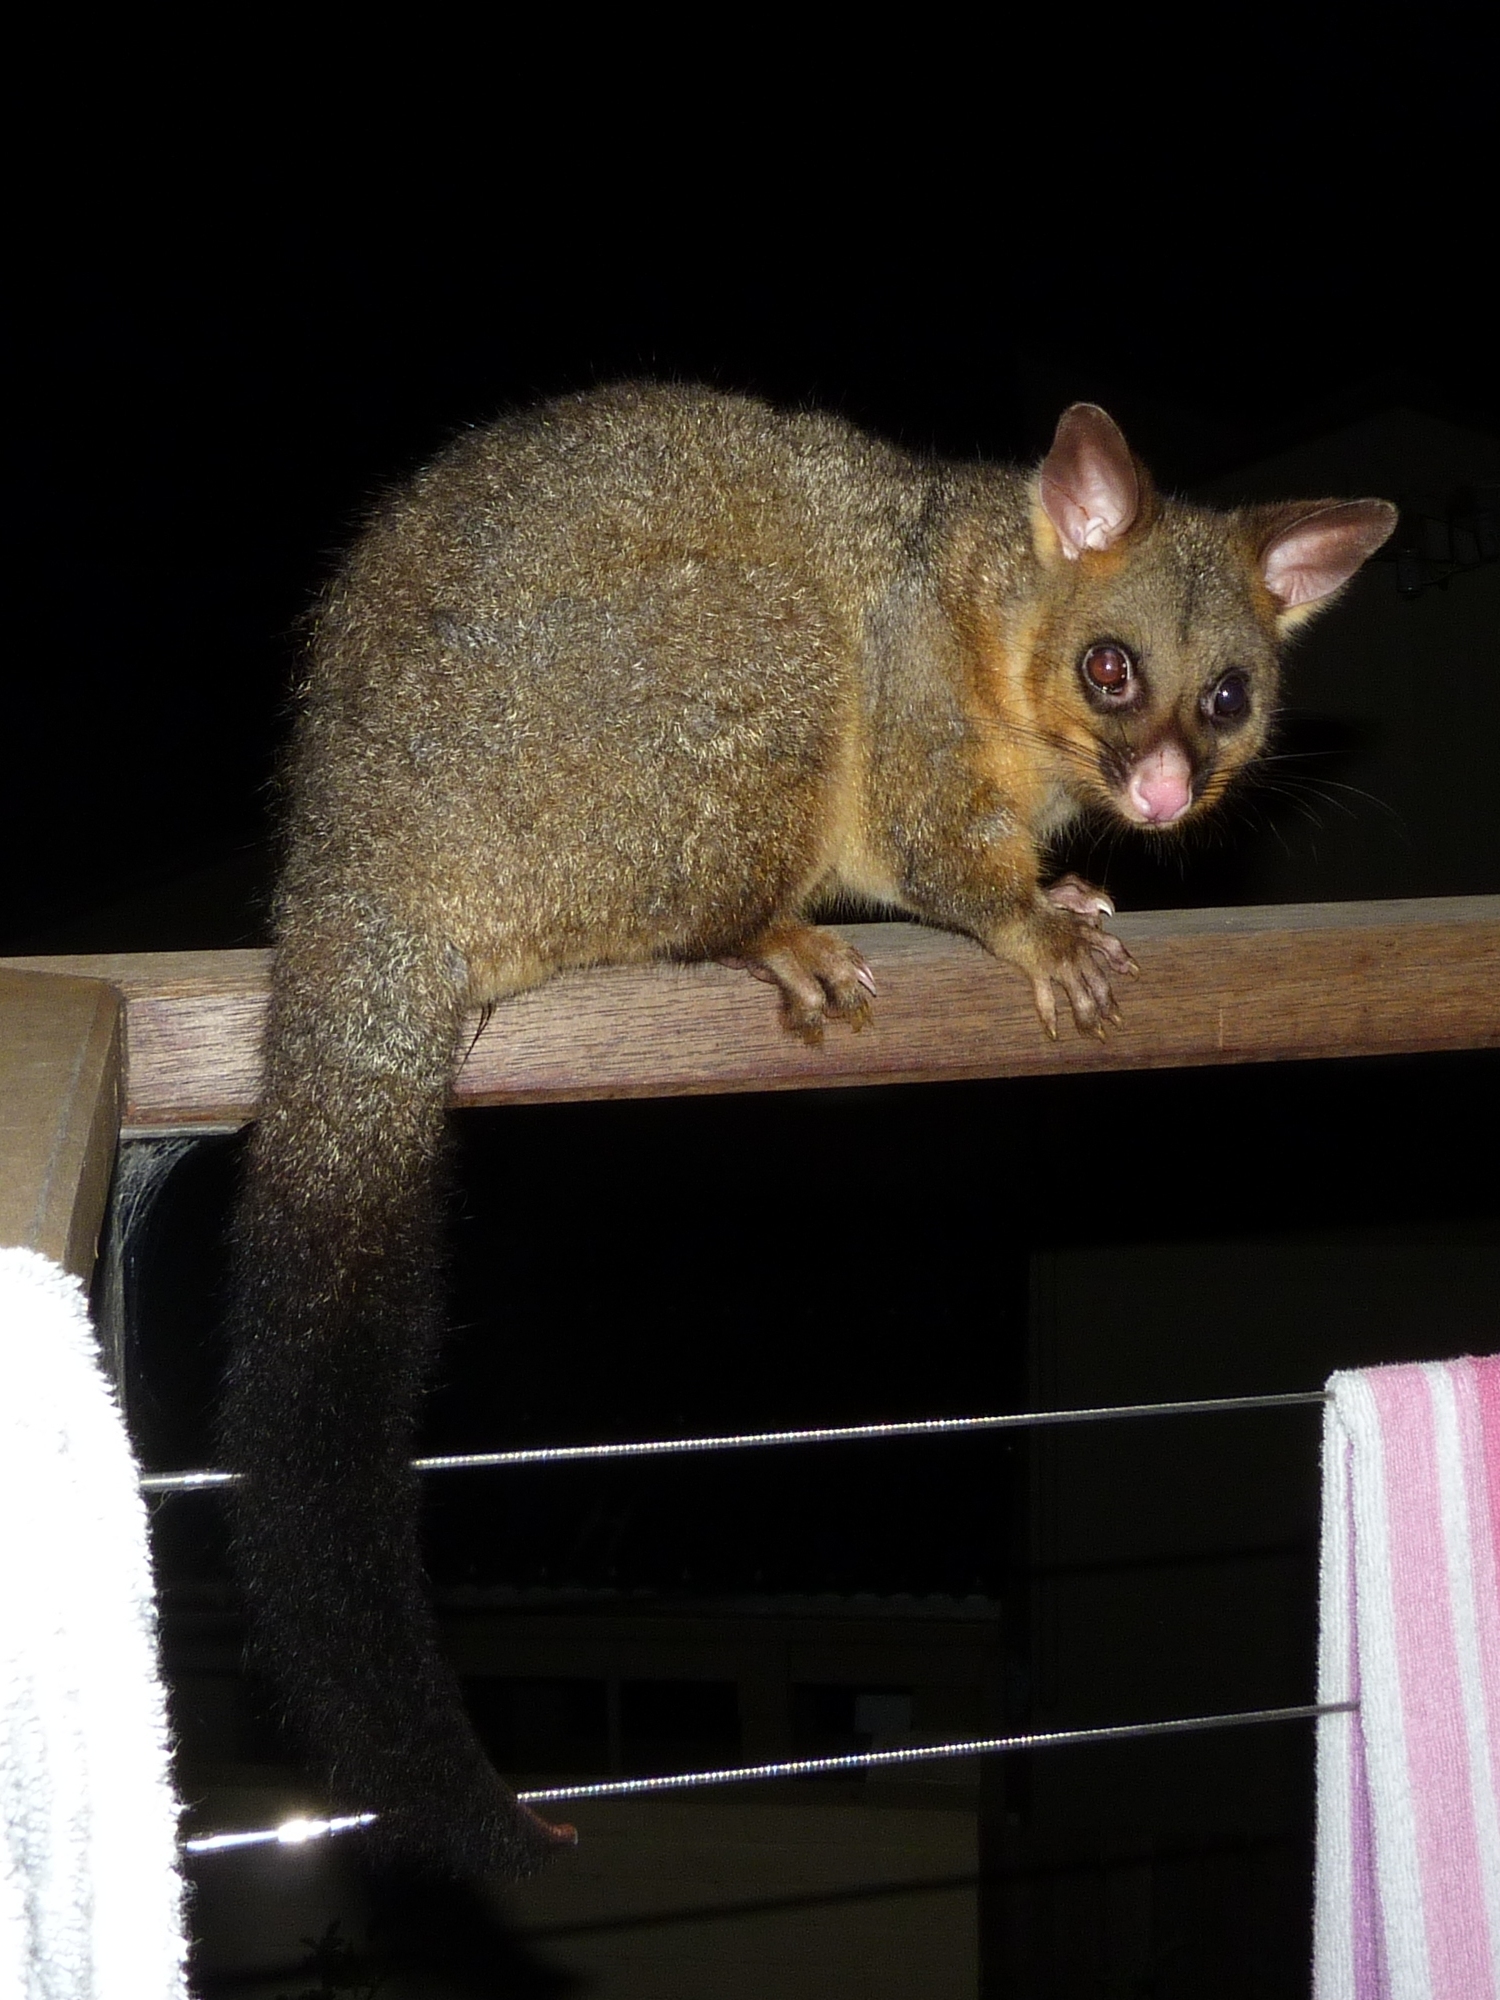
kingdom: Animalia
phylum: Chordata
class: Mammalia
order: Diprotodontia
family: Phalangeridae
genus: Trichosurus
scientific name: Trichosurus vulpecula
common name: Common brushtail
